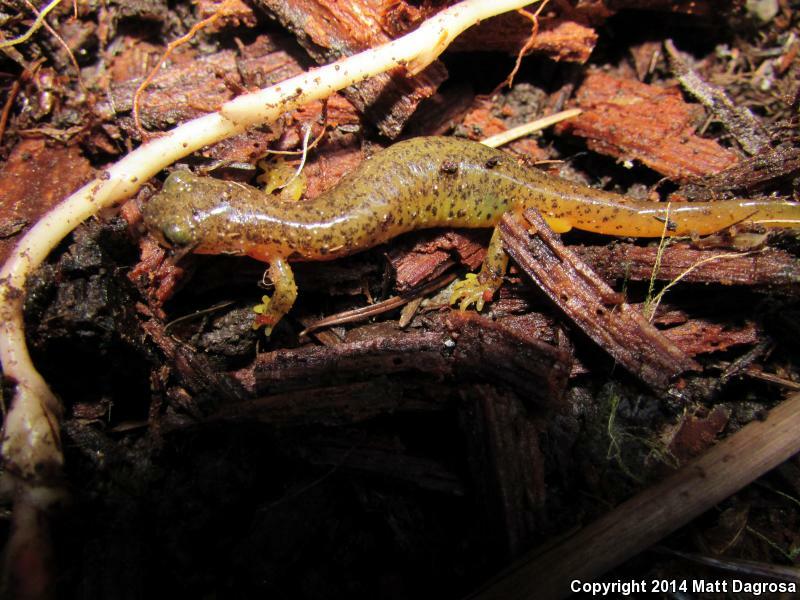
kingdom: Animalia
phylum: Chordata
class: Amphibia
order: Caudata
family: Rhyacotritonidae
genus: Rhyacotriton
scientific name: Rhyacotriton cascadae
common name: Cascade torrent salamander
